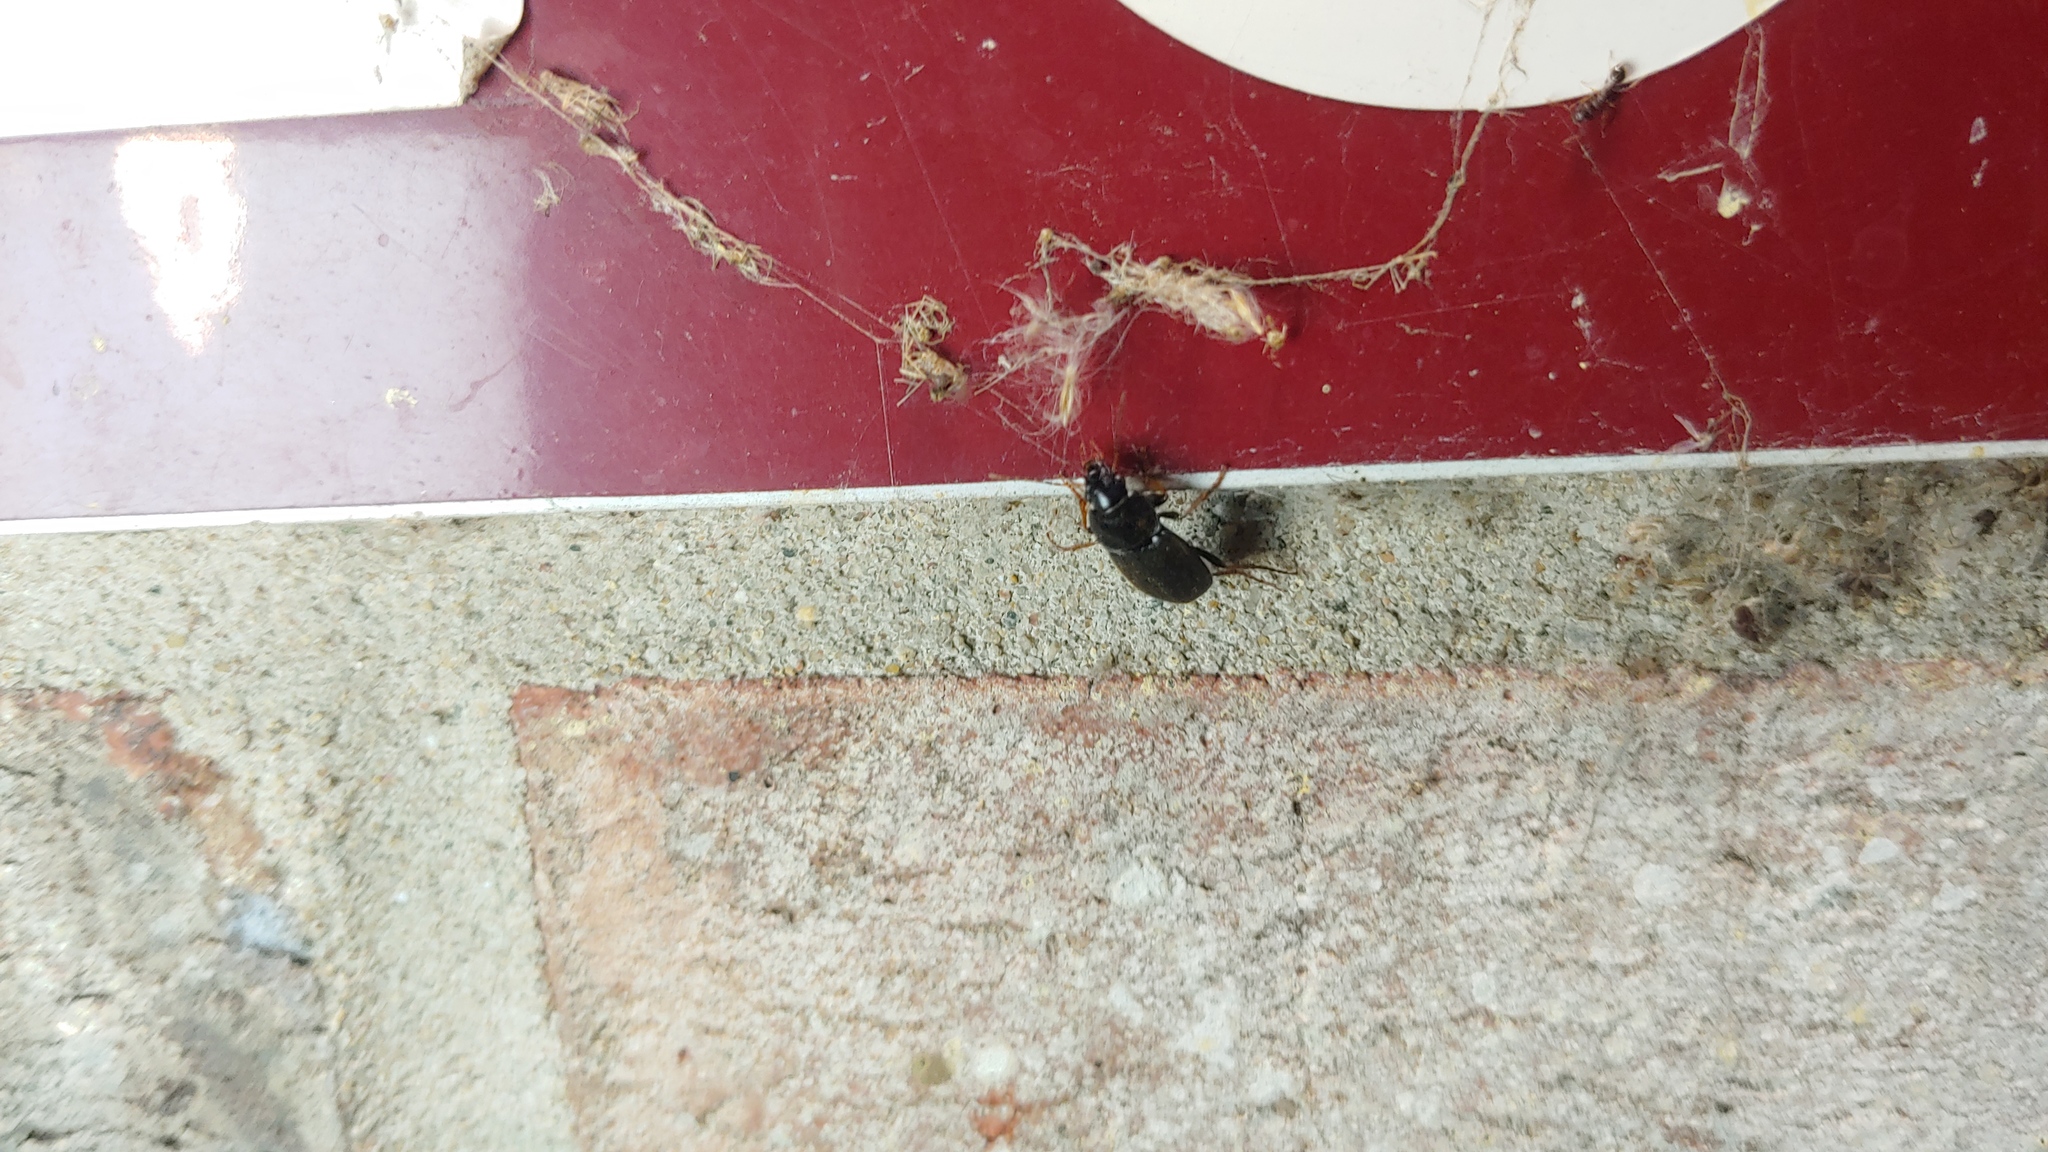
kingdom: Animalia
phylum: Arthropoda
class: Insecta
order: Coleoptera
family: Carabidae
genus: Amphasia
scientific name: Amphasia sericea
